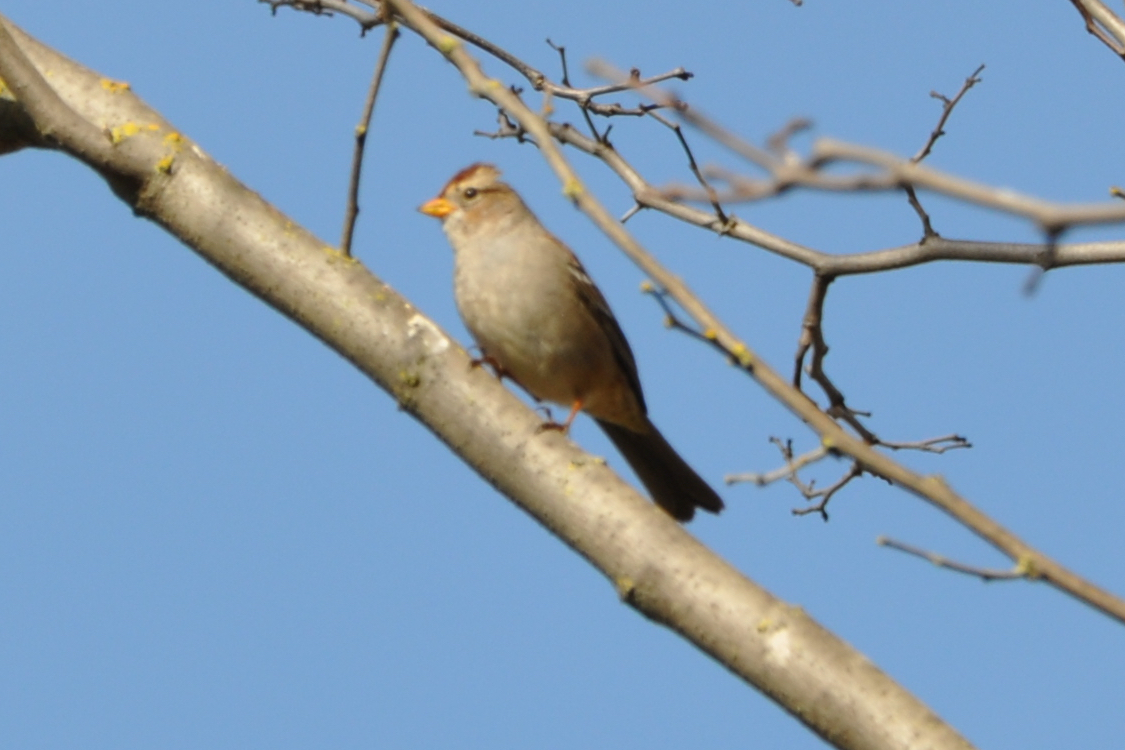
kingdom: Animalia
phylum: Chordata
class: Aves
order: Passeriformes
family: Passerellidae
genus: Zonotrichia
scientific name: Zonotrichia leucophrys
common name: White-crowned sparrow
